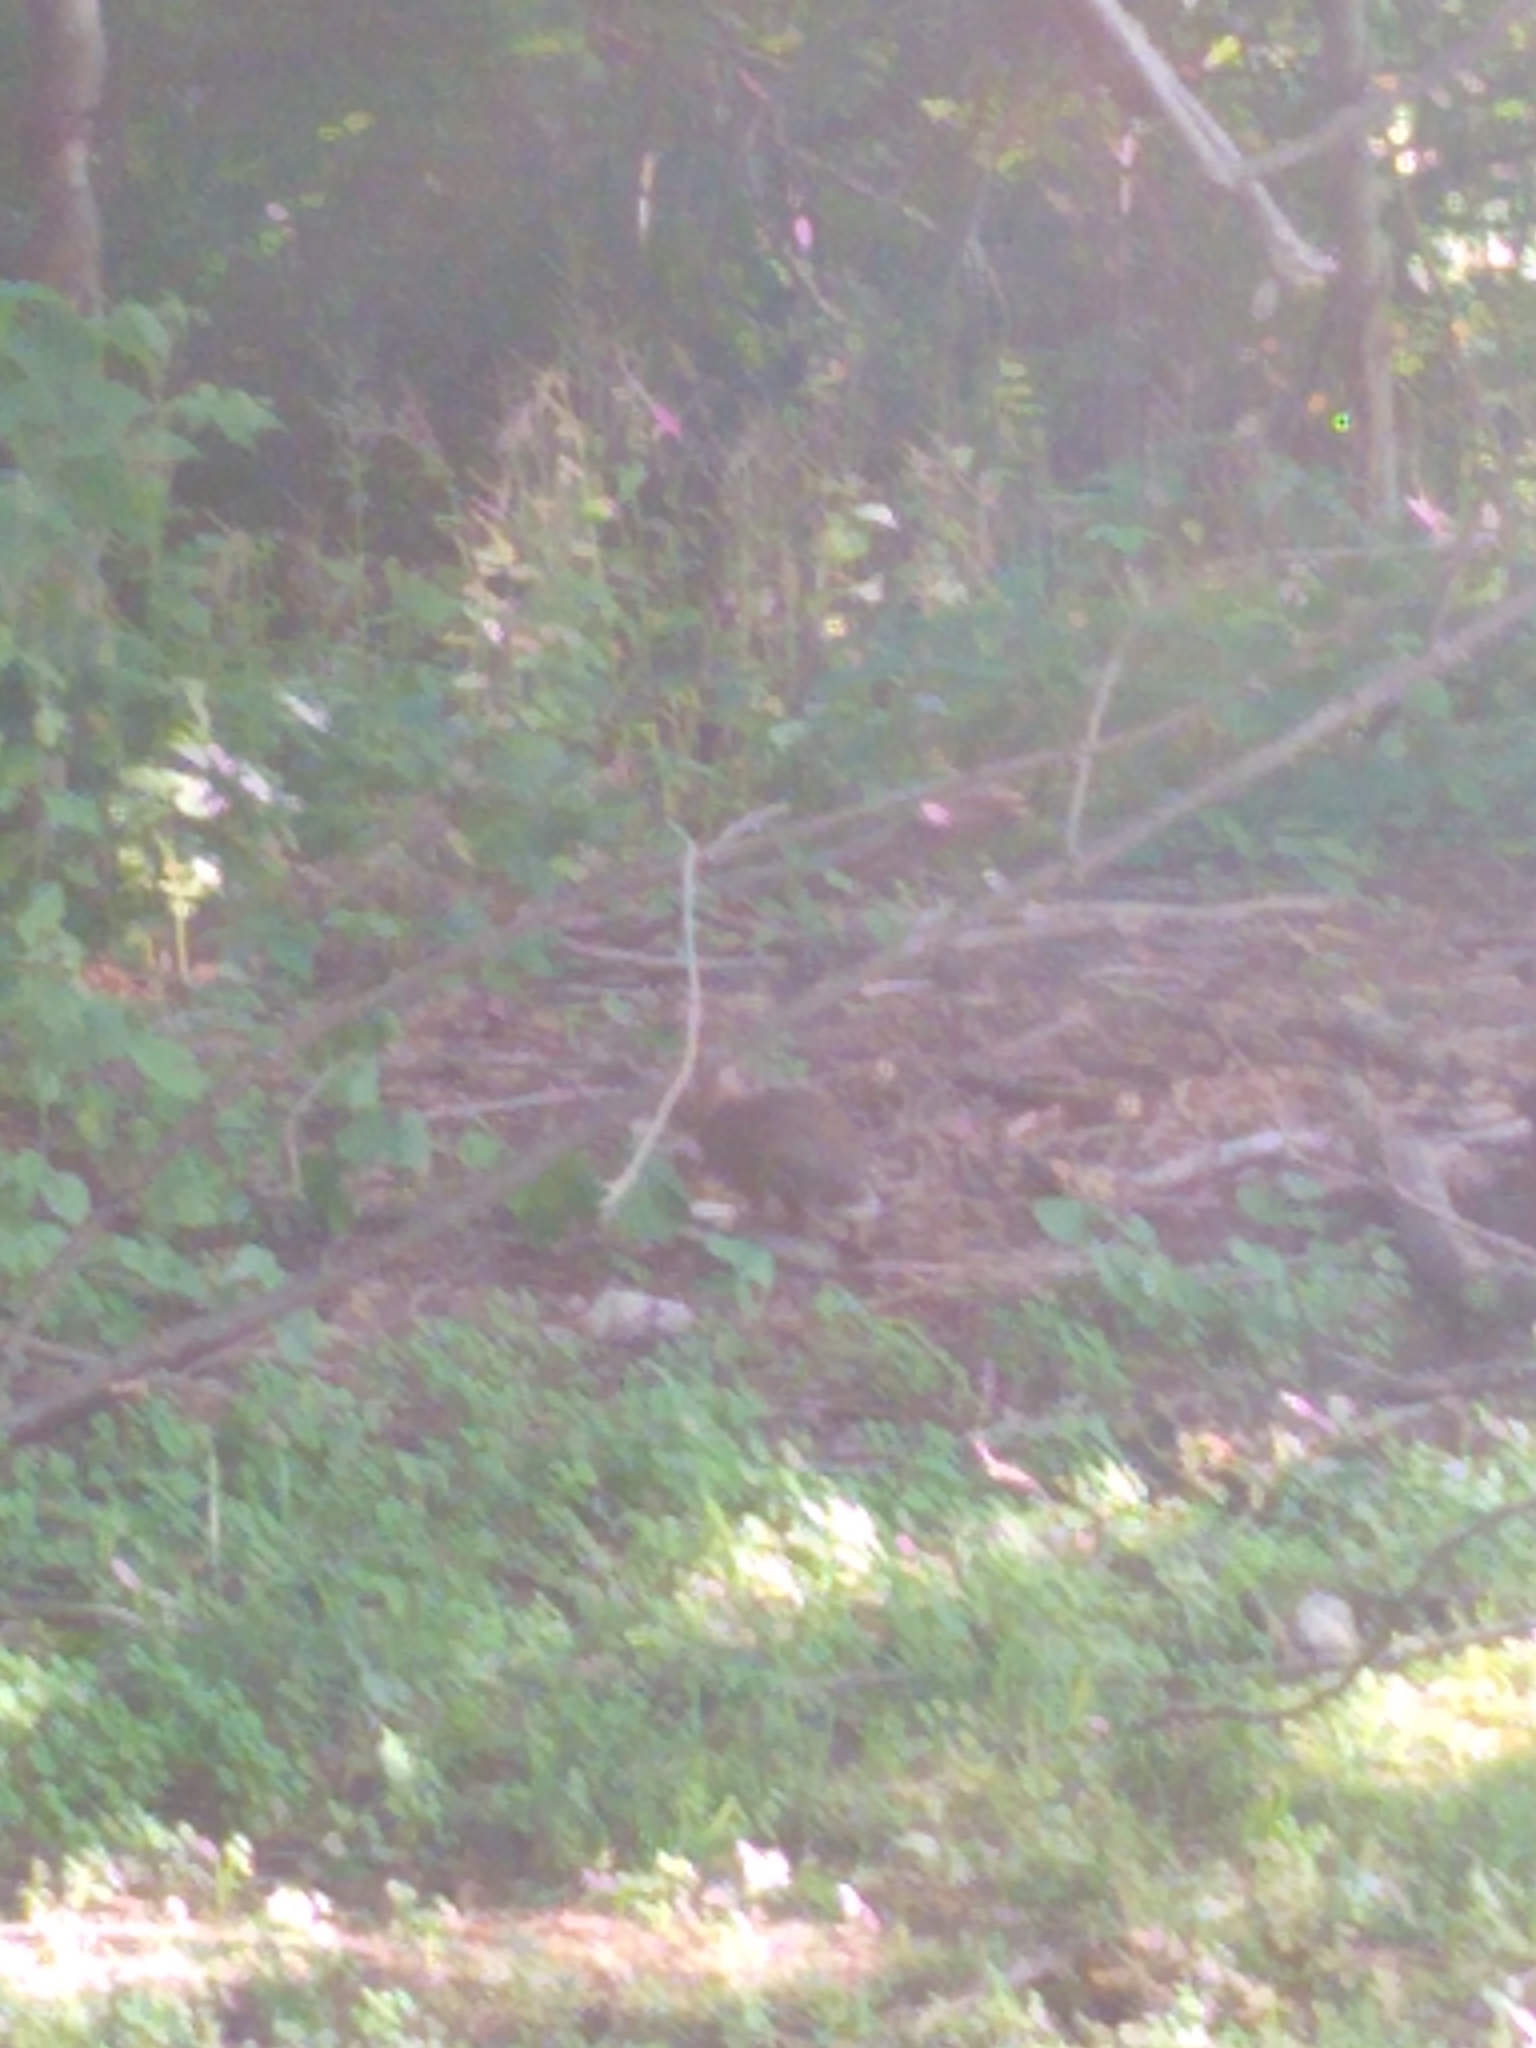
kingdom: Animalia
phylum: Chordata
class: Mammalia
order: Lagomorpha
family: Leporidae
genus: Sylvilagus
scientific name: Sylvilagus floridanus
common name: Eastern cottontail
